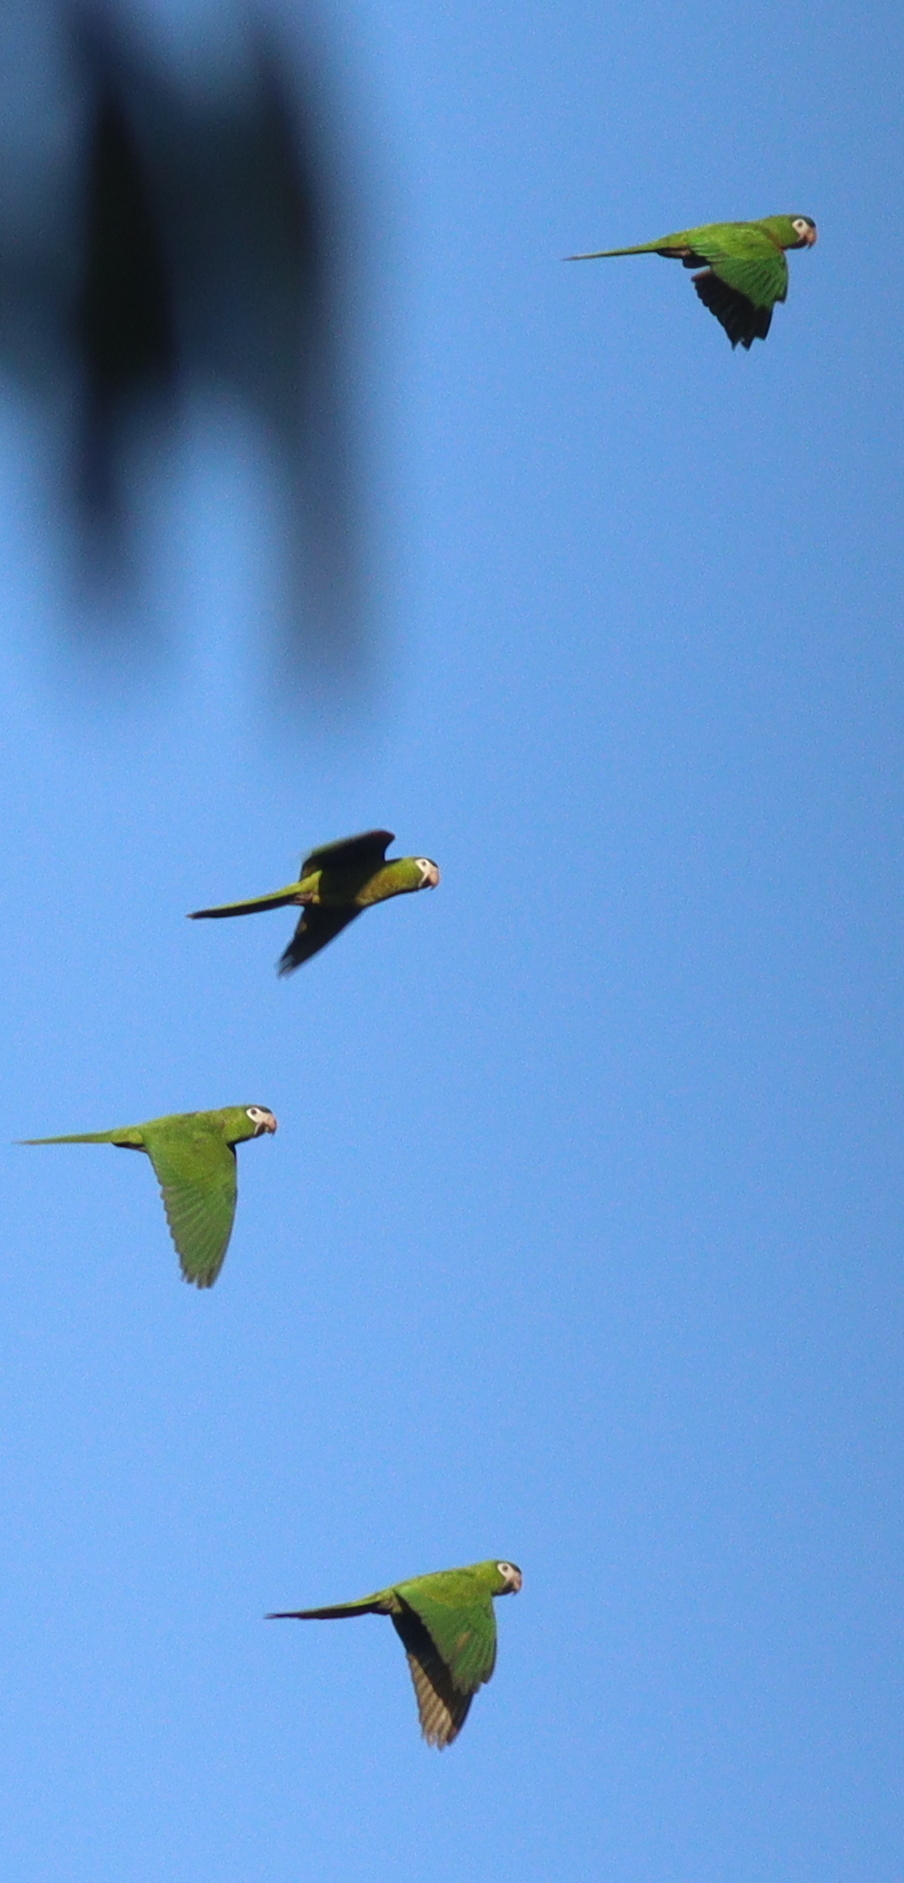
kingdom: Animalia
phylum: Chordata
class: Aves
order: Psittaciformes
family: Psittacidae
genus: Diopsittaca
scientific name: Diopsittaca nobilis
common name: Red-shouldered macaw
